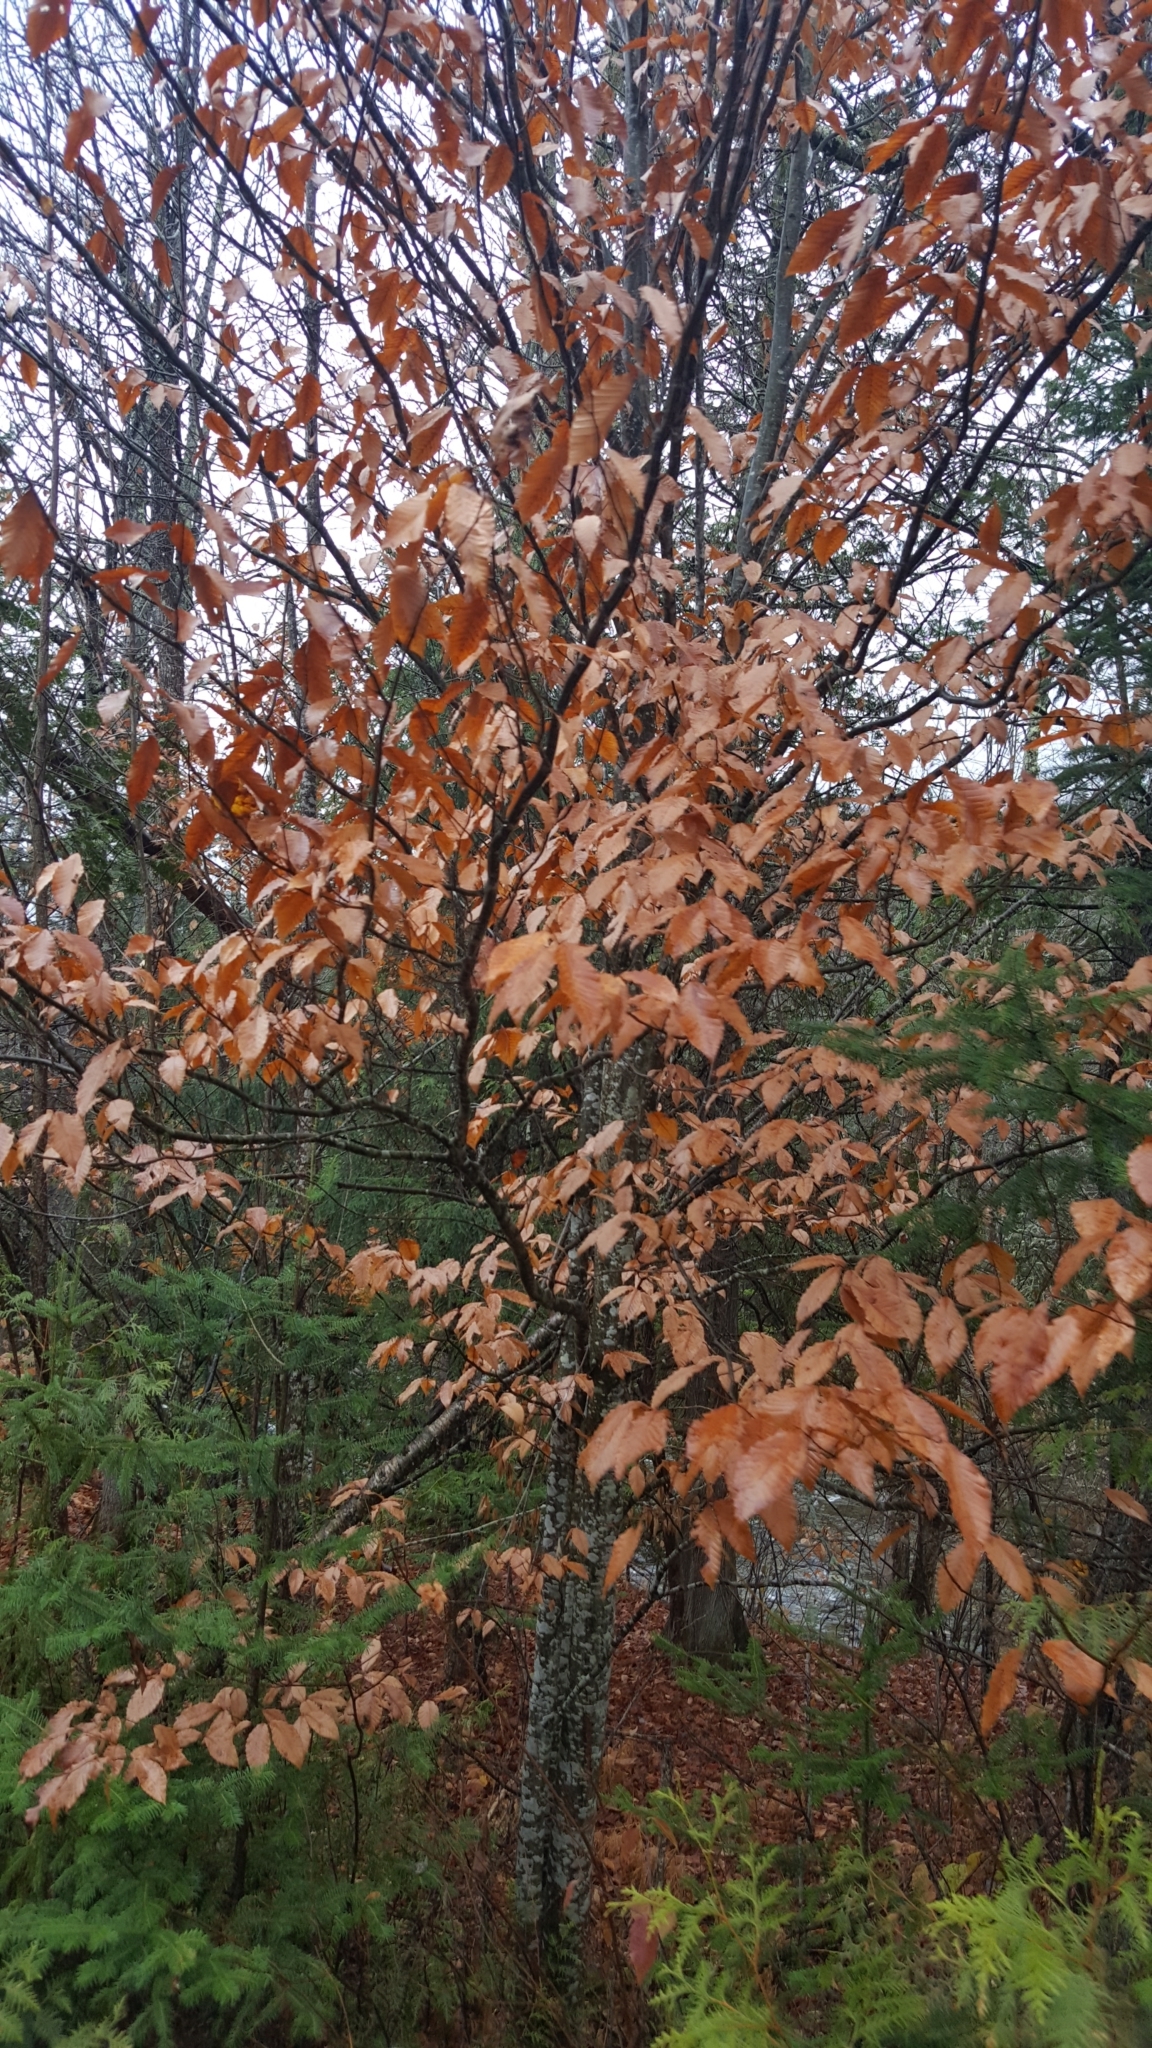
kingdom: Plantae
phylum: Tracheophyta
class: Magnoliopsida
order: Fagales
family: Fagaceae
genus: Fagus
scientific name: Fagus grandifolia
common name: American beech
